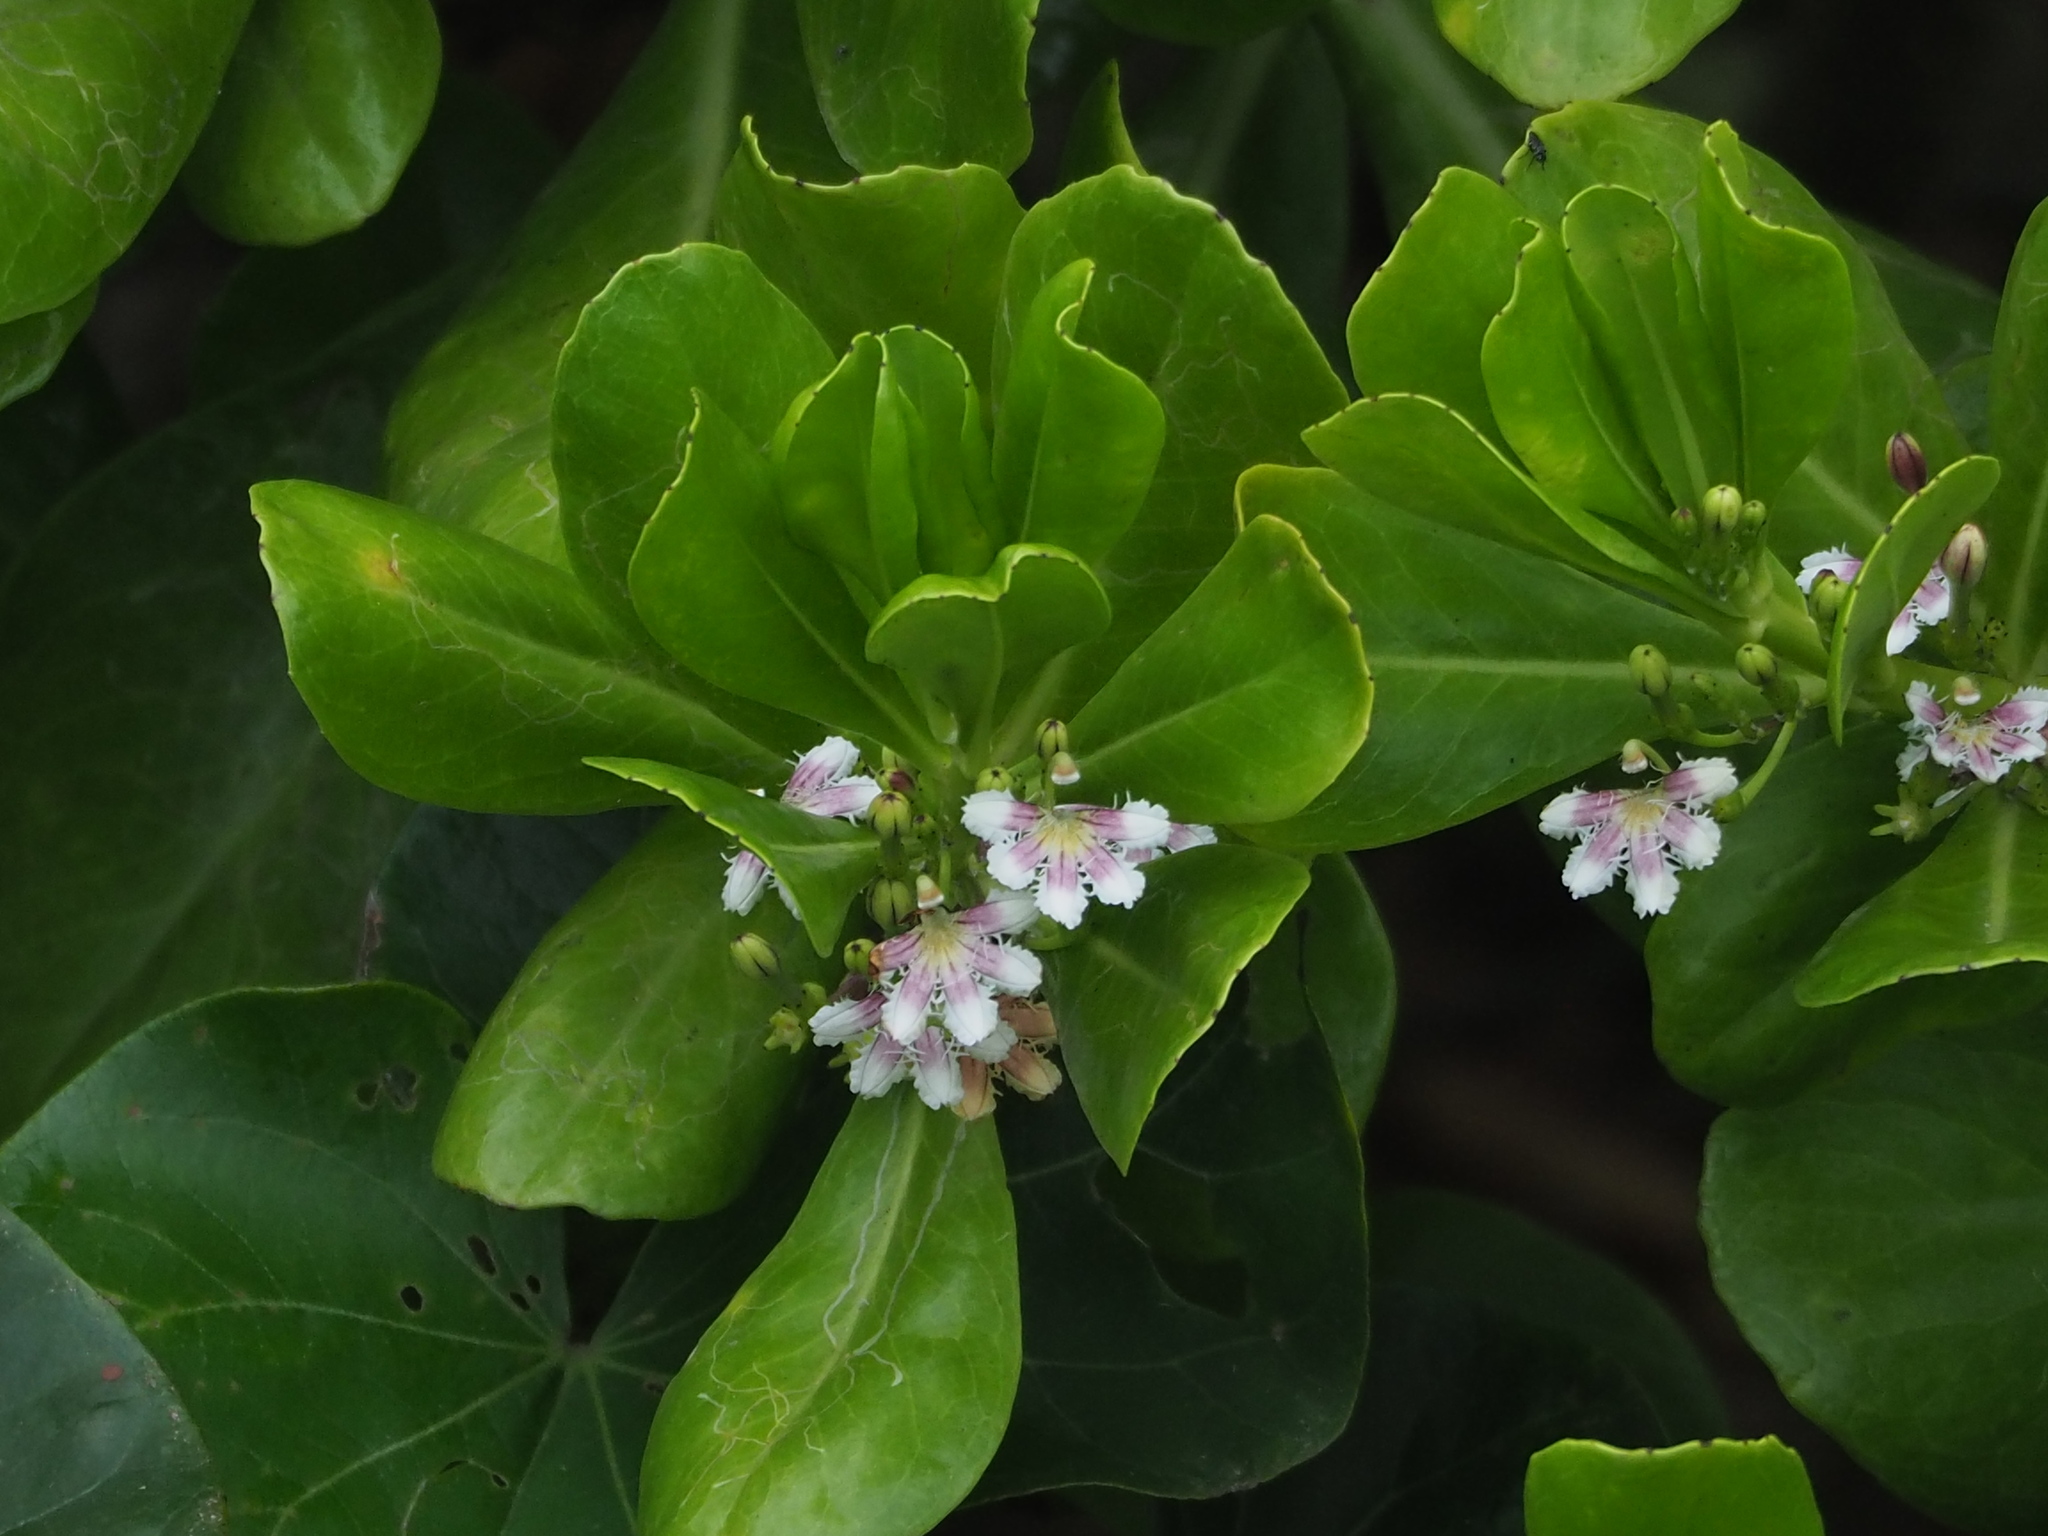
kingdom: Plantae
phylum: Tracheophyta
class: Magnoliopsida
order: Asterales
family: Goodeniaceae
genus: Scaevola
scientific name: Scaevola taccada
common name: Sea lettucetree
